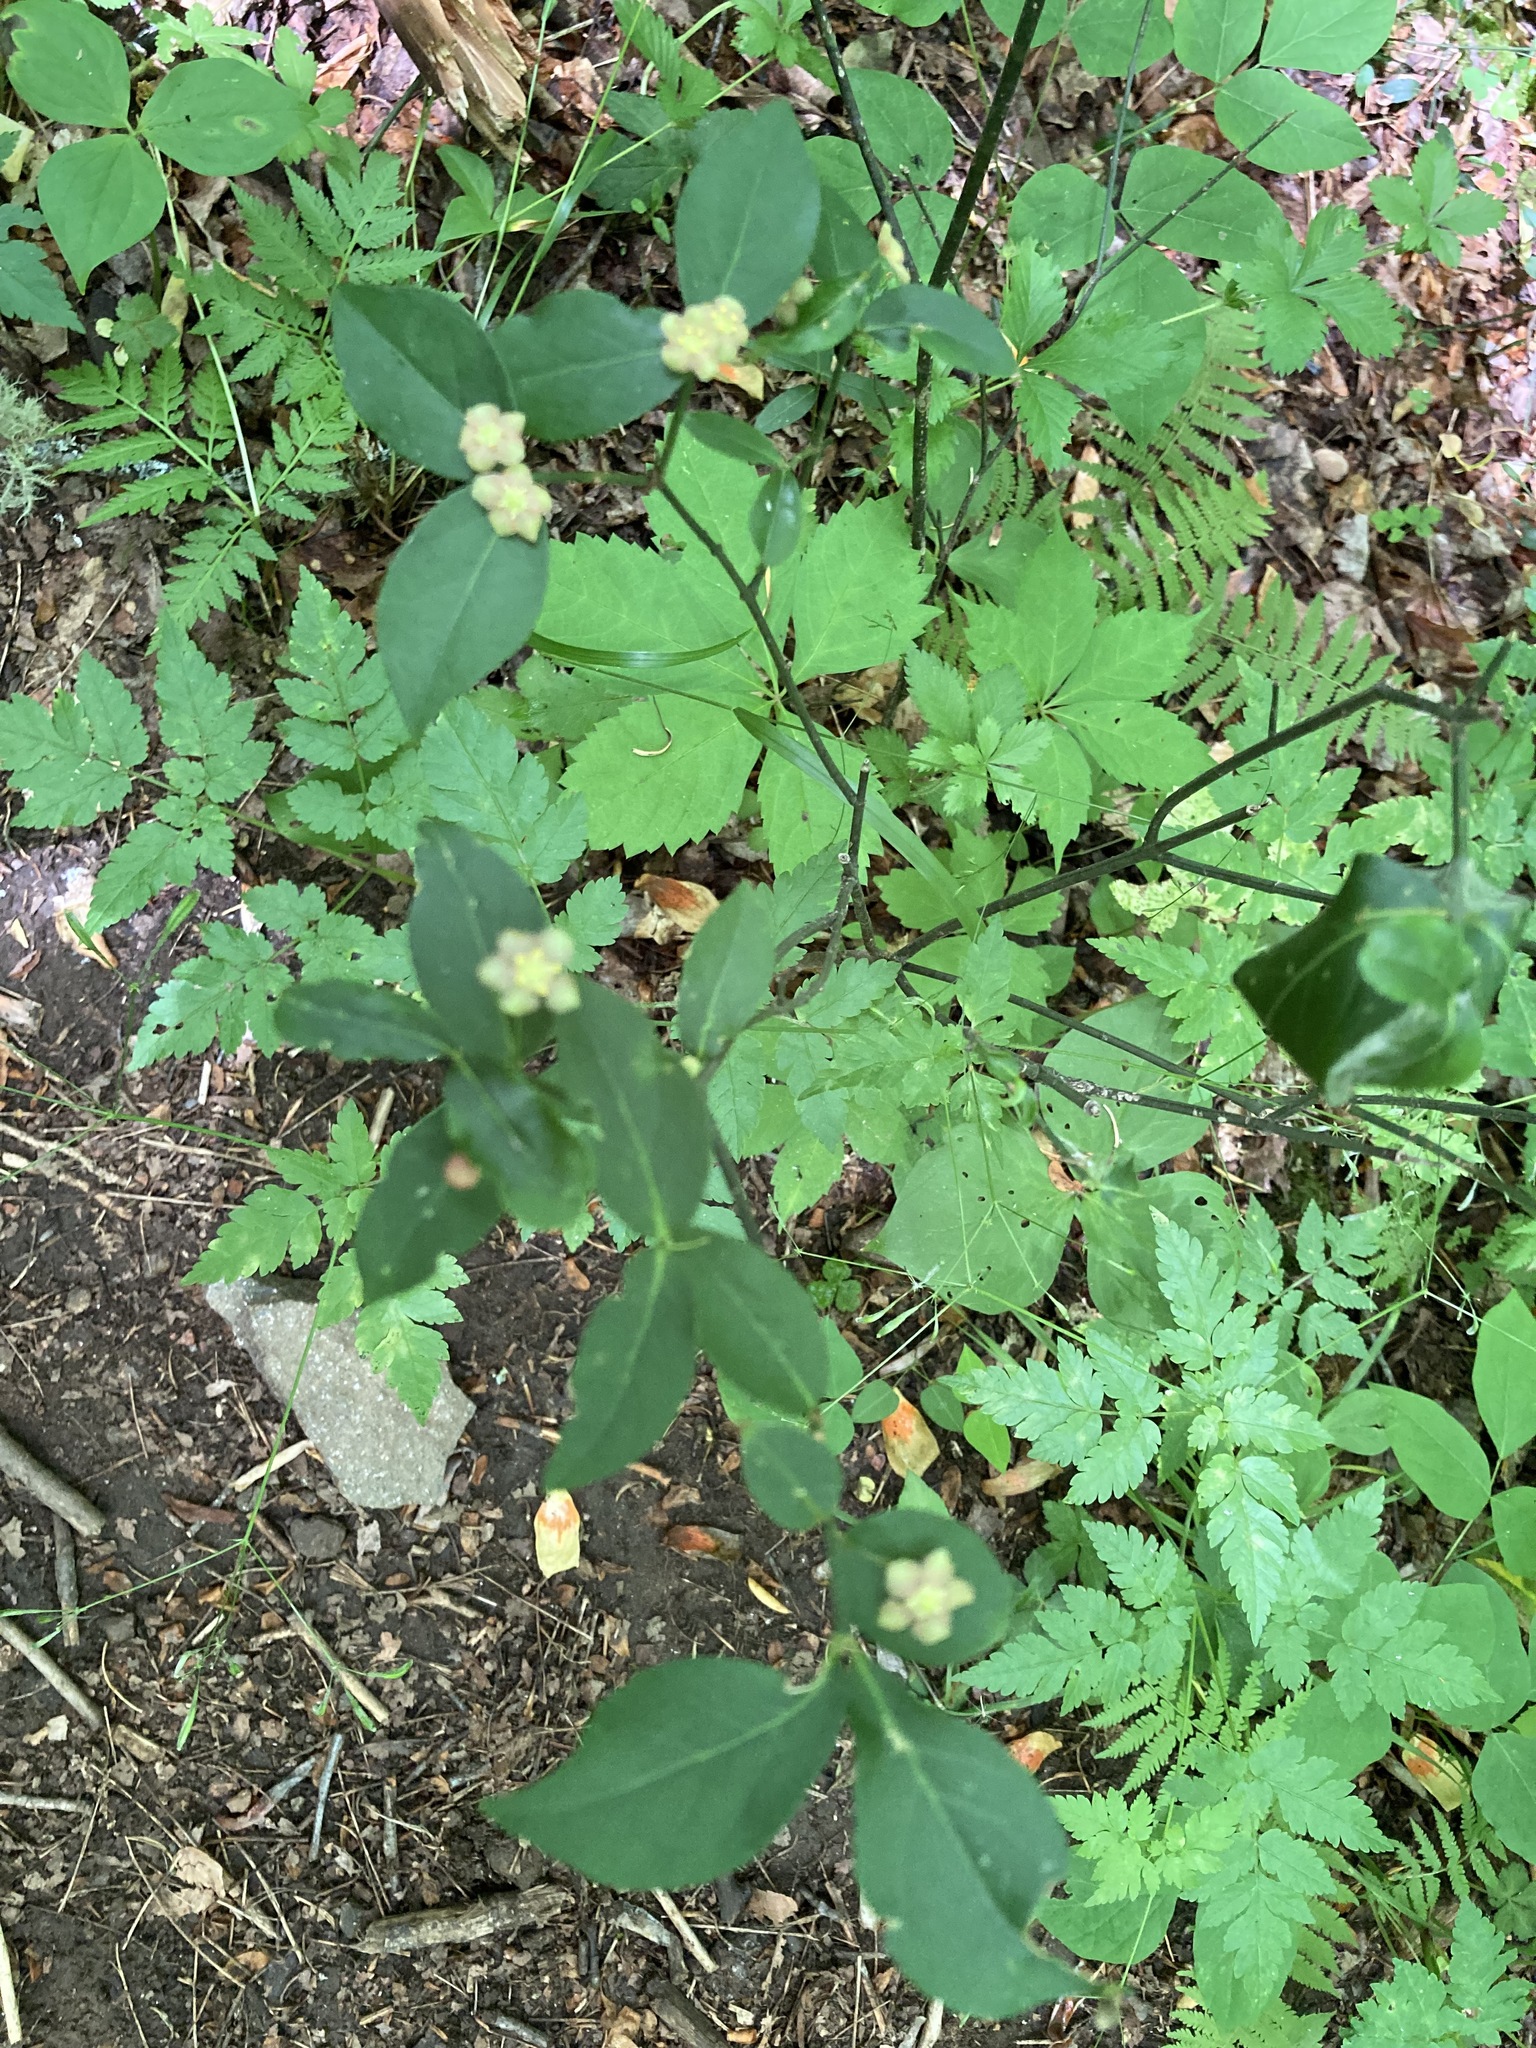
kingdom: Plantae
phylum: Tracheophyta
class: Magnoliopsida
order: Celastrales
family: Celastraceae
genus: Euonymus
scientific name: Euonymus americanus
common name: Bursting-heart
